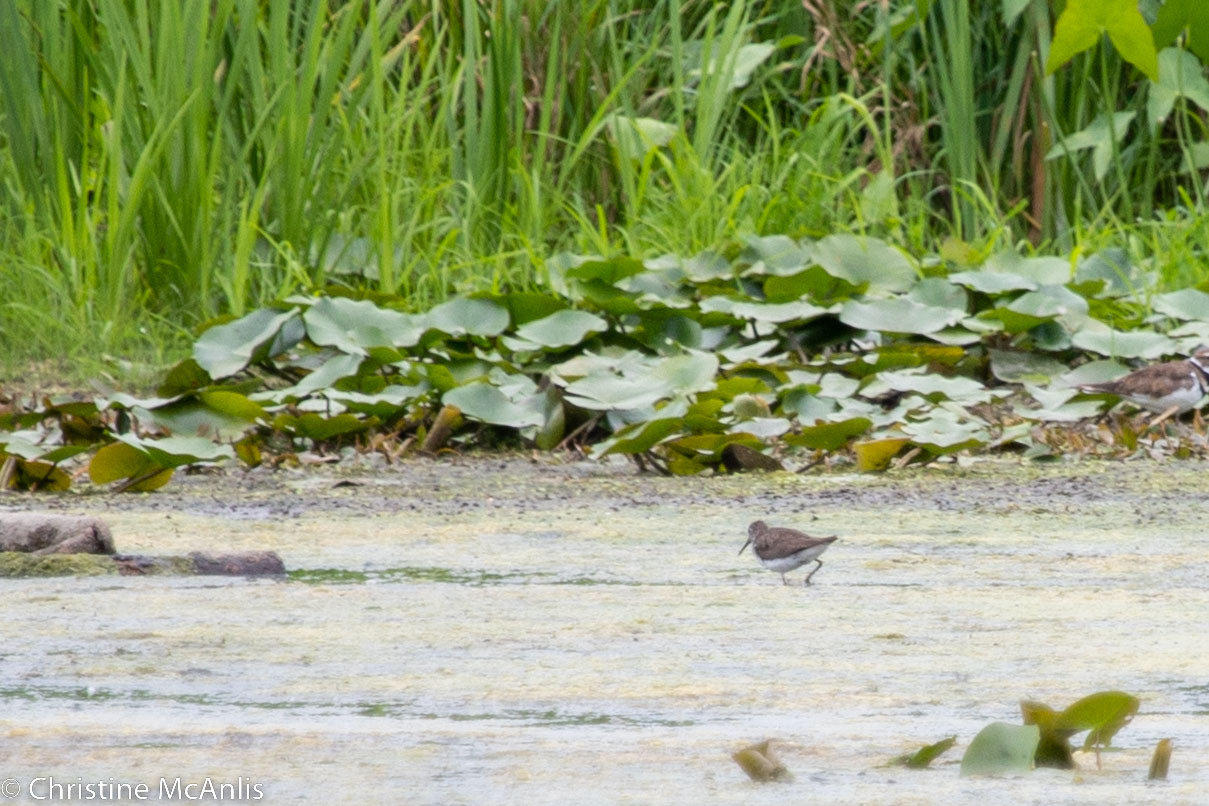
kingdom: Animalia
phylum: Chordata
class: Aves
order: Charadriiformes
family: Scolopacidae
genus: Tringa
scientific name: Tringa solitaria
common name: Solitary sandpiper
